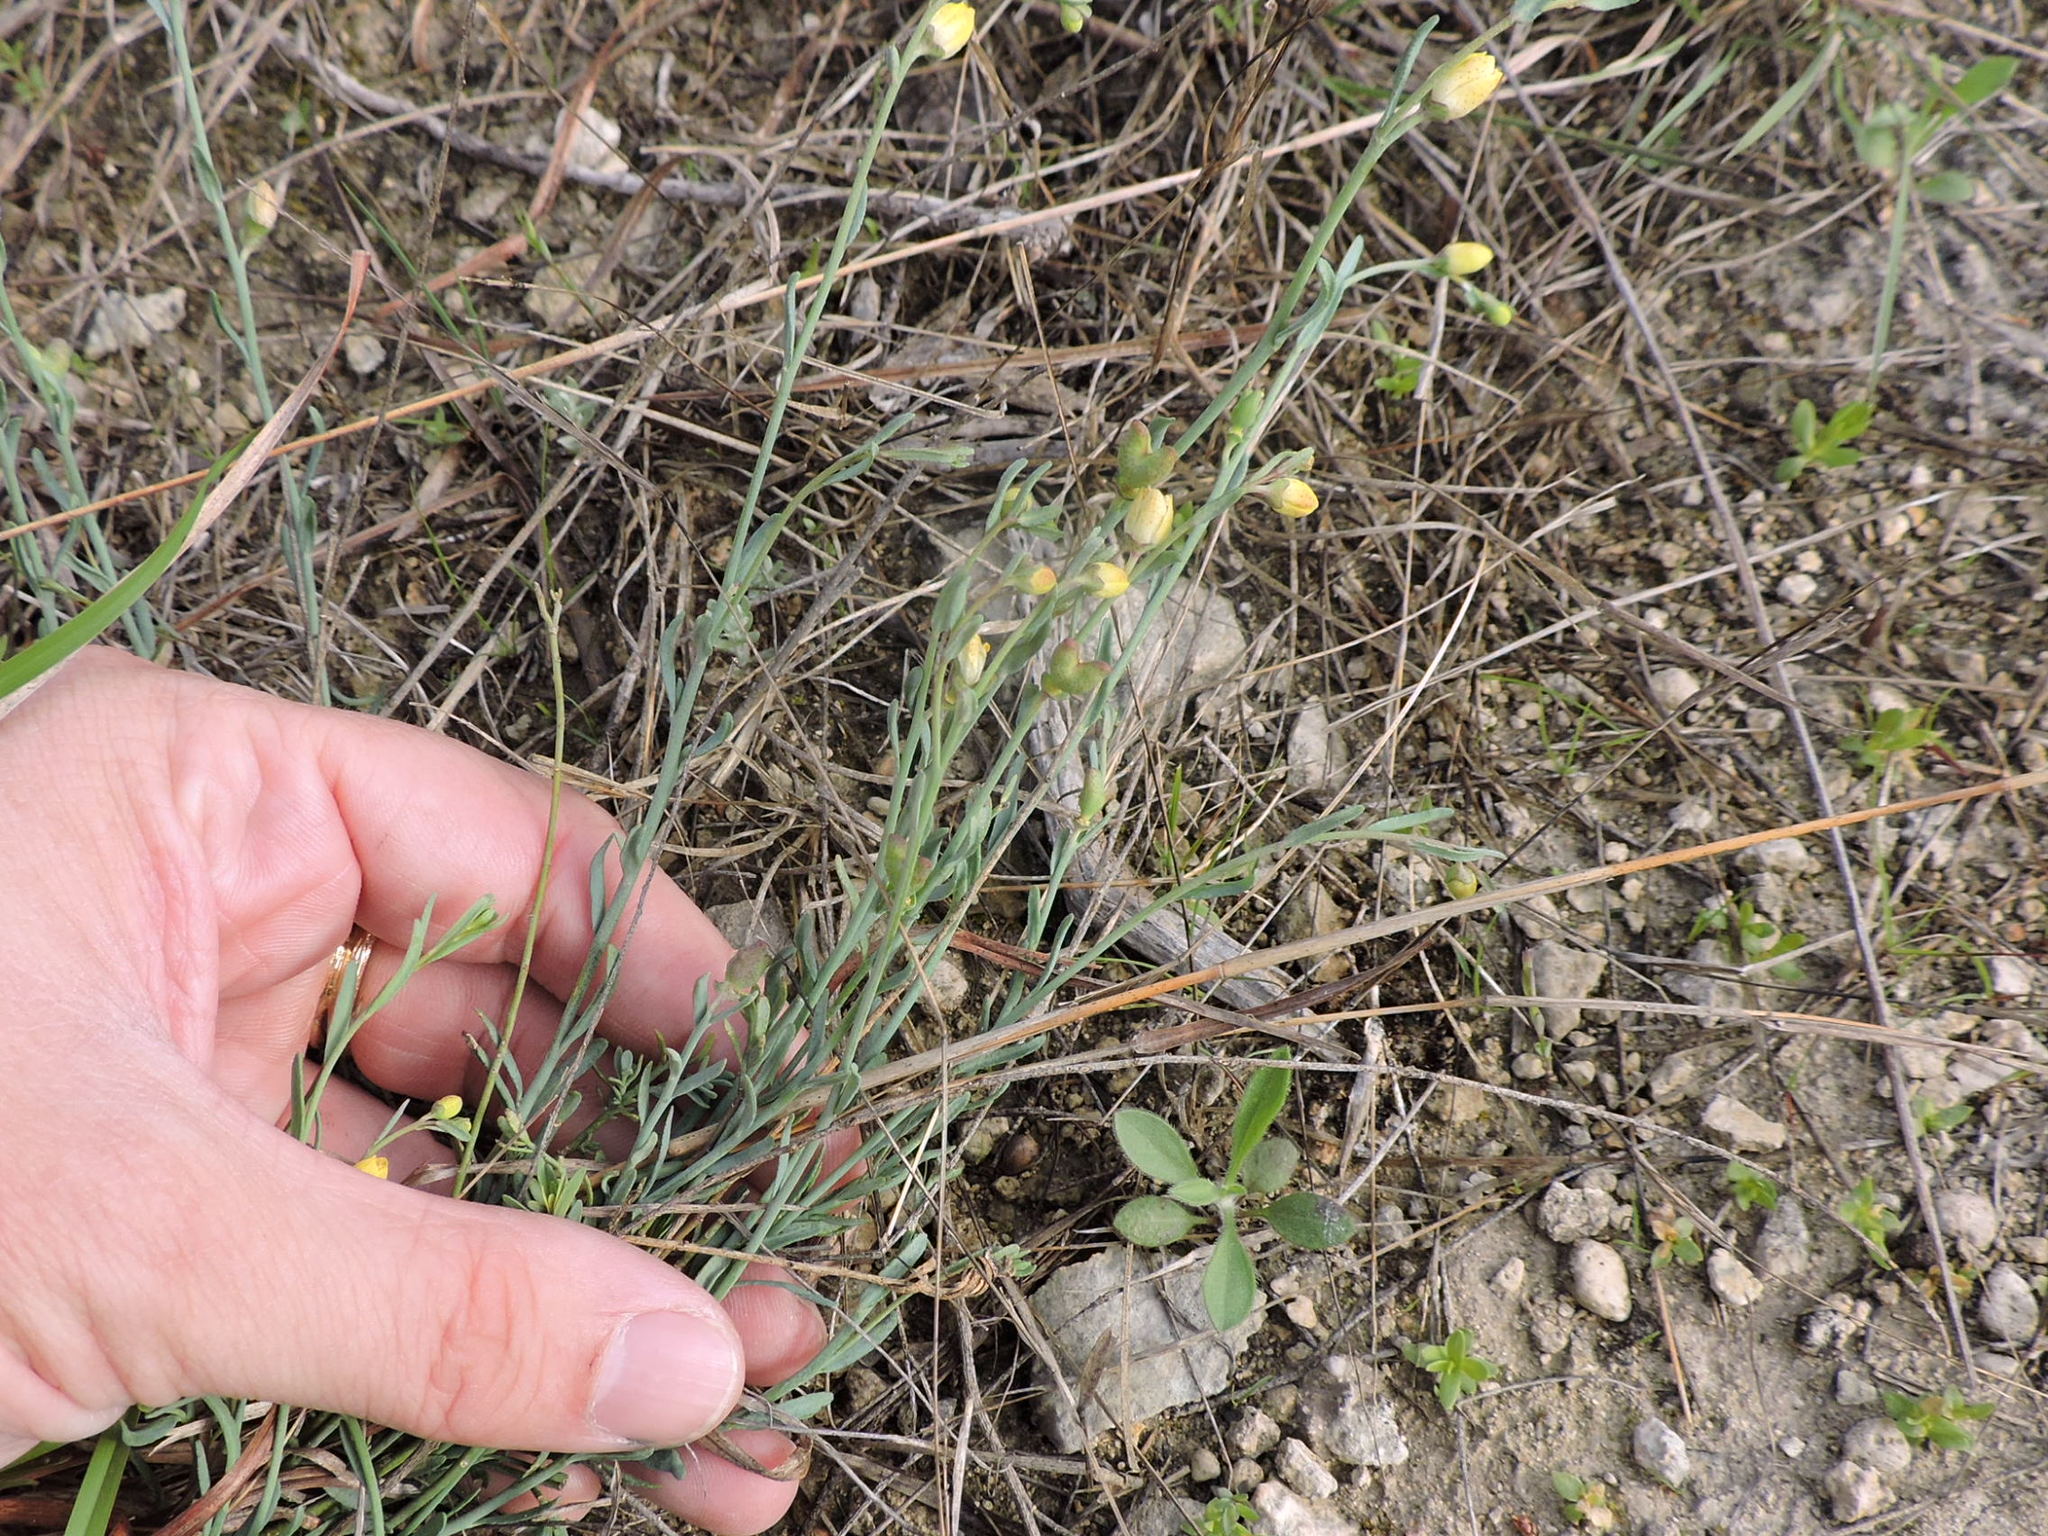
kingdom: Plantae
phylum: Tracheophyta
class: Magnoliopsida
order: Sapindales
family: Rutaceae
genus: Thamnosma
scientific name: Thamnosma texana
